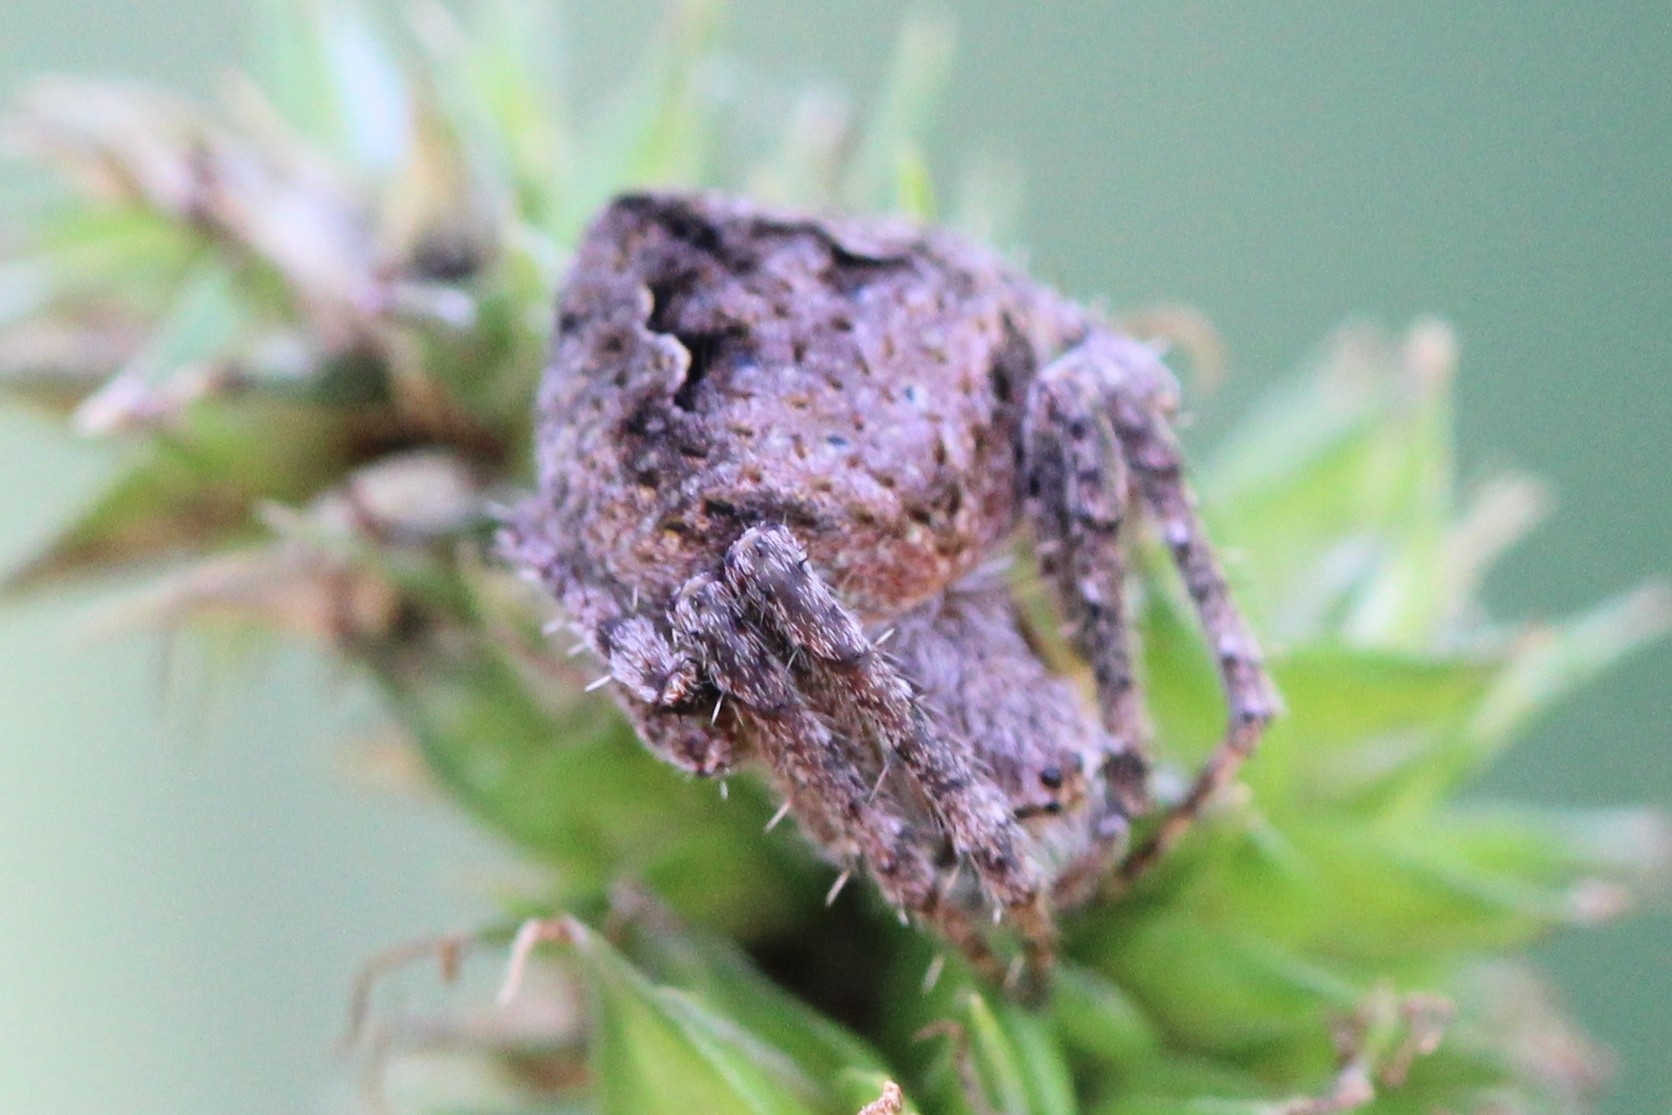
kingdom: Animalia
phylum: Arthropoda
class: Arachnida
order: Araneae
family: Araneidae
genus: Eustala
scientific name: Eustala anastera
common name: Orb weavers
